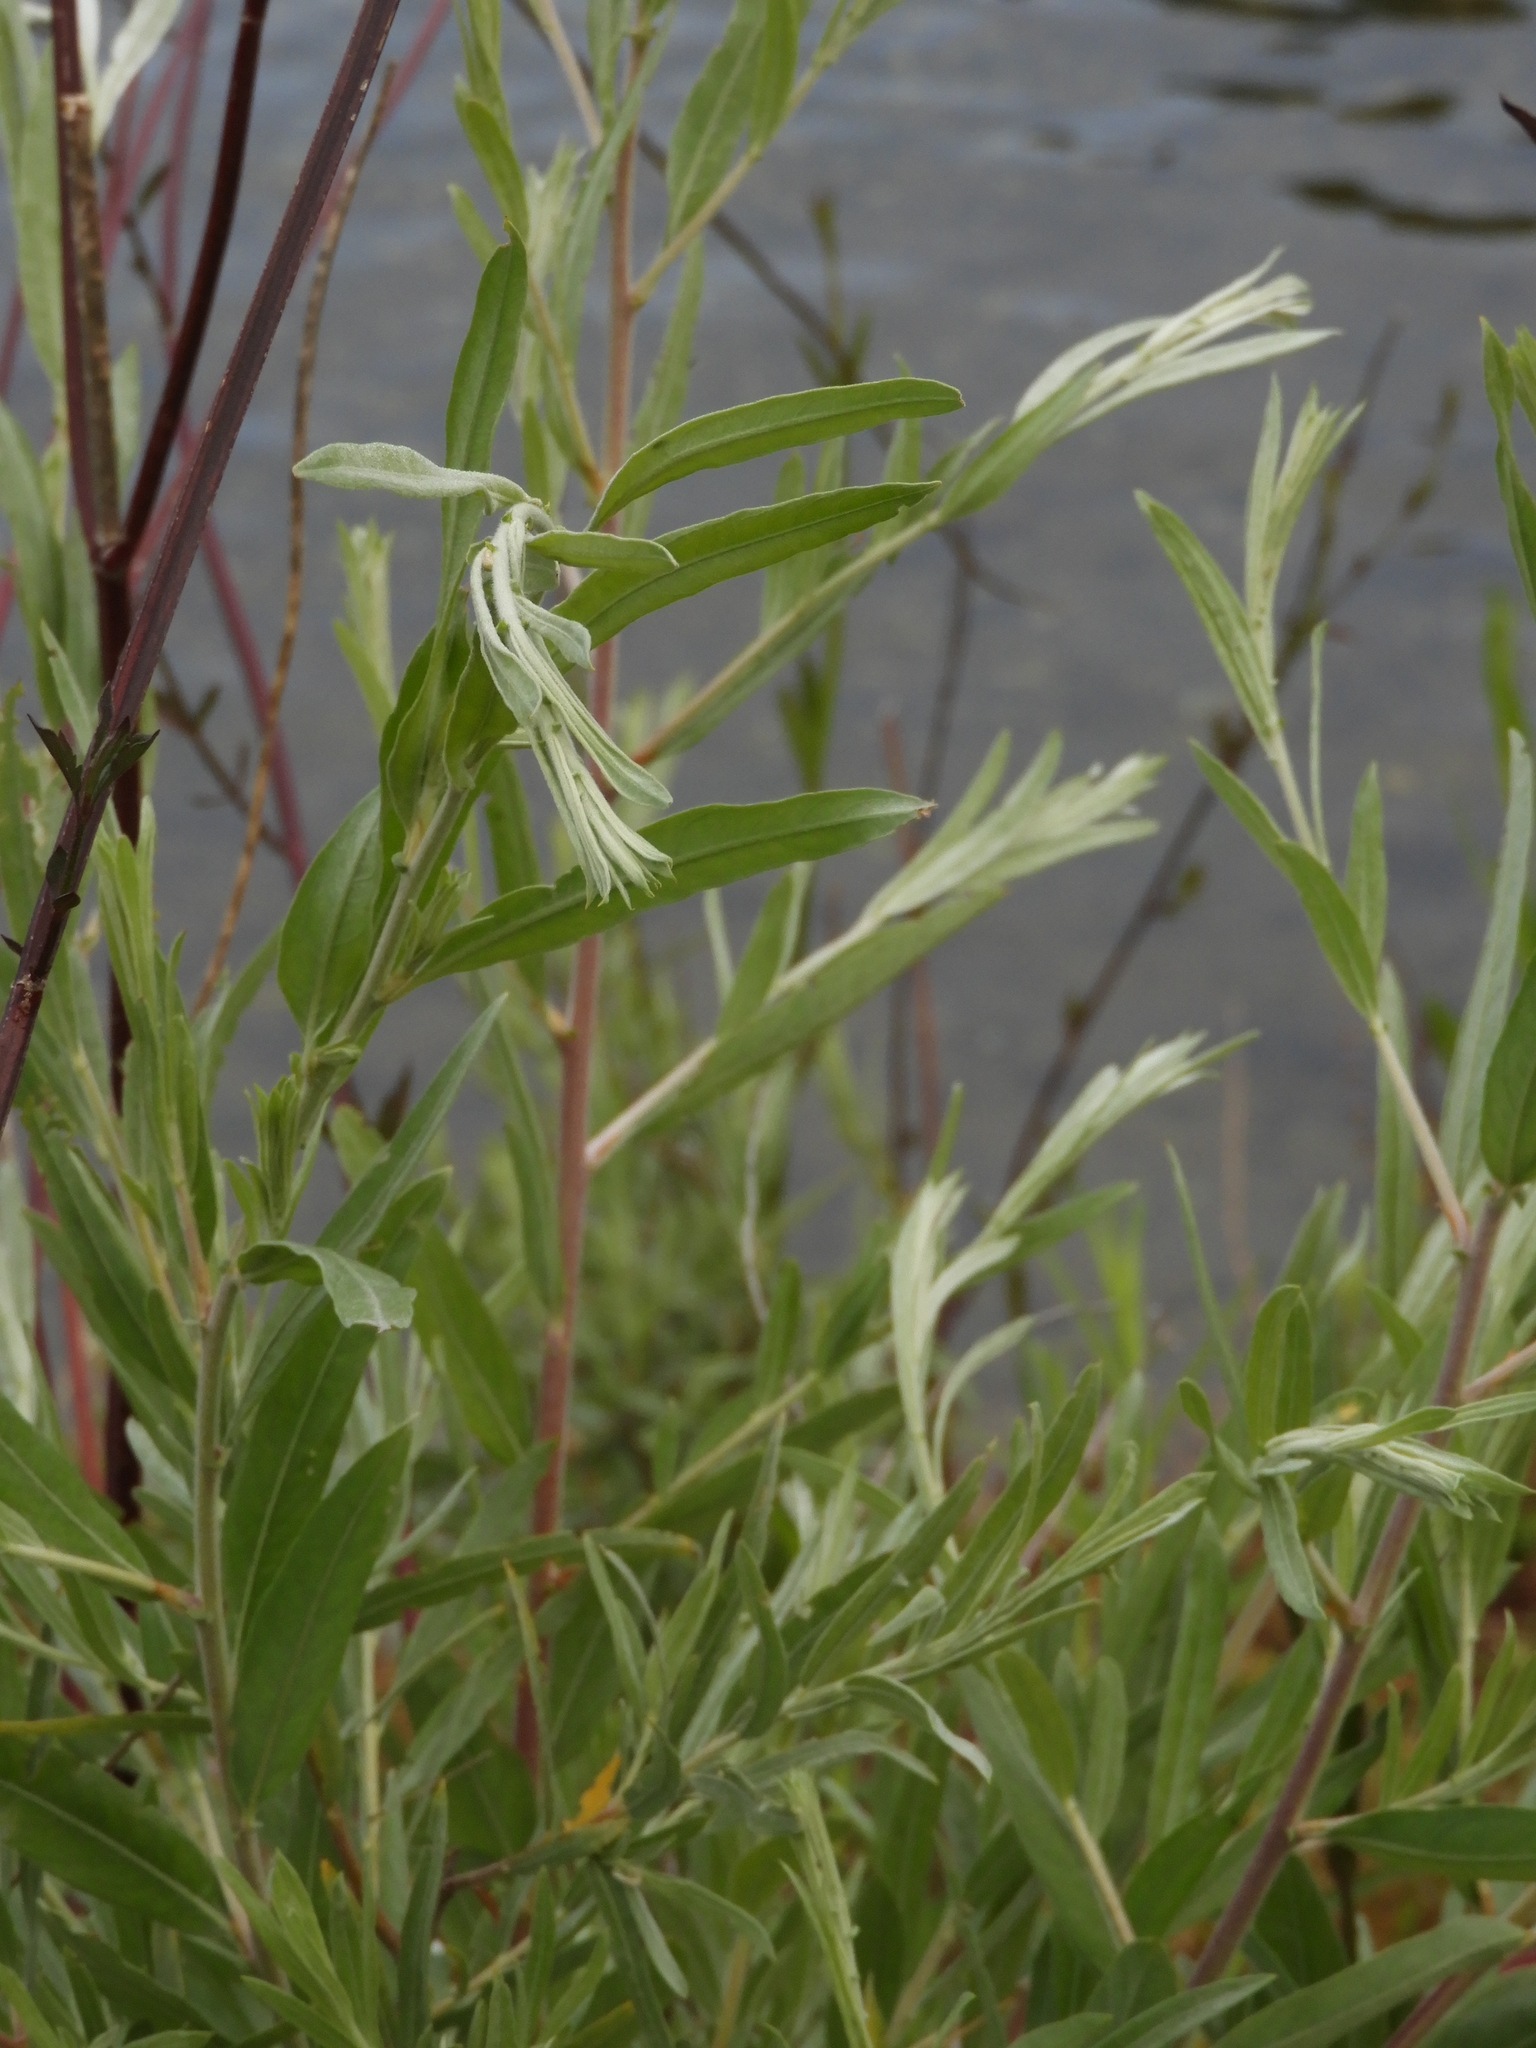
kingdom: Plantae
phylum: Tracheophyta
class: Magnoliopsida
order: Malpighiales
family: Salicaceae
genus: Salix
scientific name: Salix exigua
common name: Coyote willow
